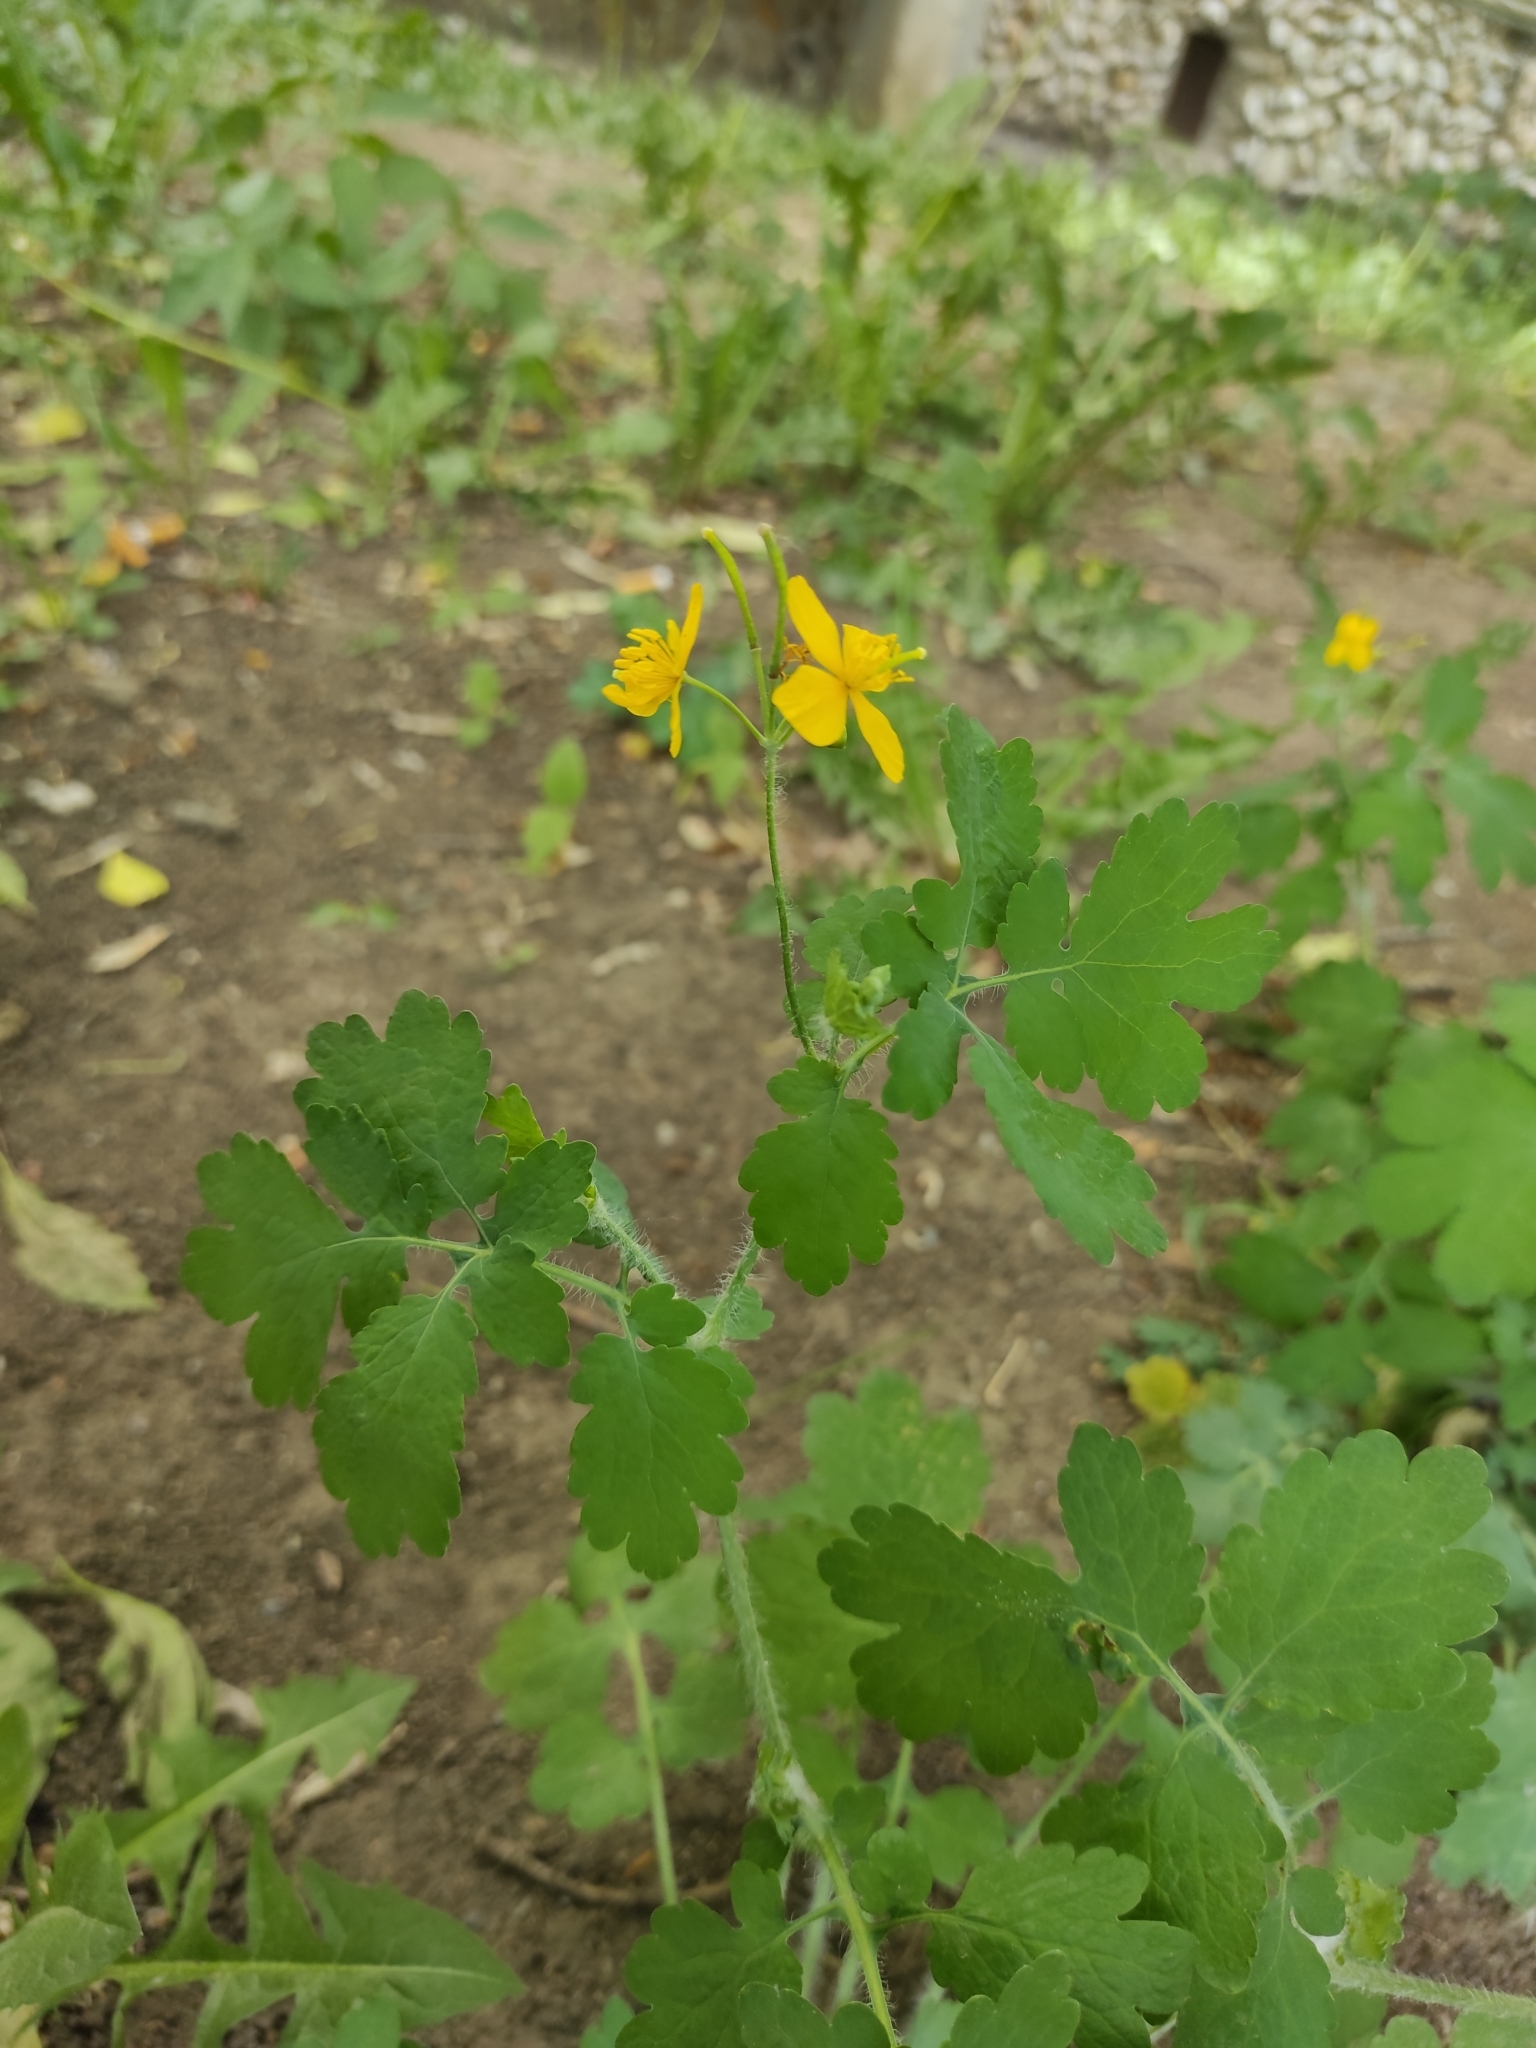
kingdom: Plantae
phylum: Tracheophyta
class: Magnoliopsida
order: Ranunculales
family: Papaveraceae
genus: Chelidonium
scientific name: Chelidonium majus
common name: Greater celandine
